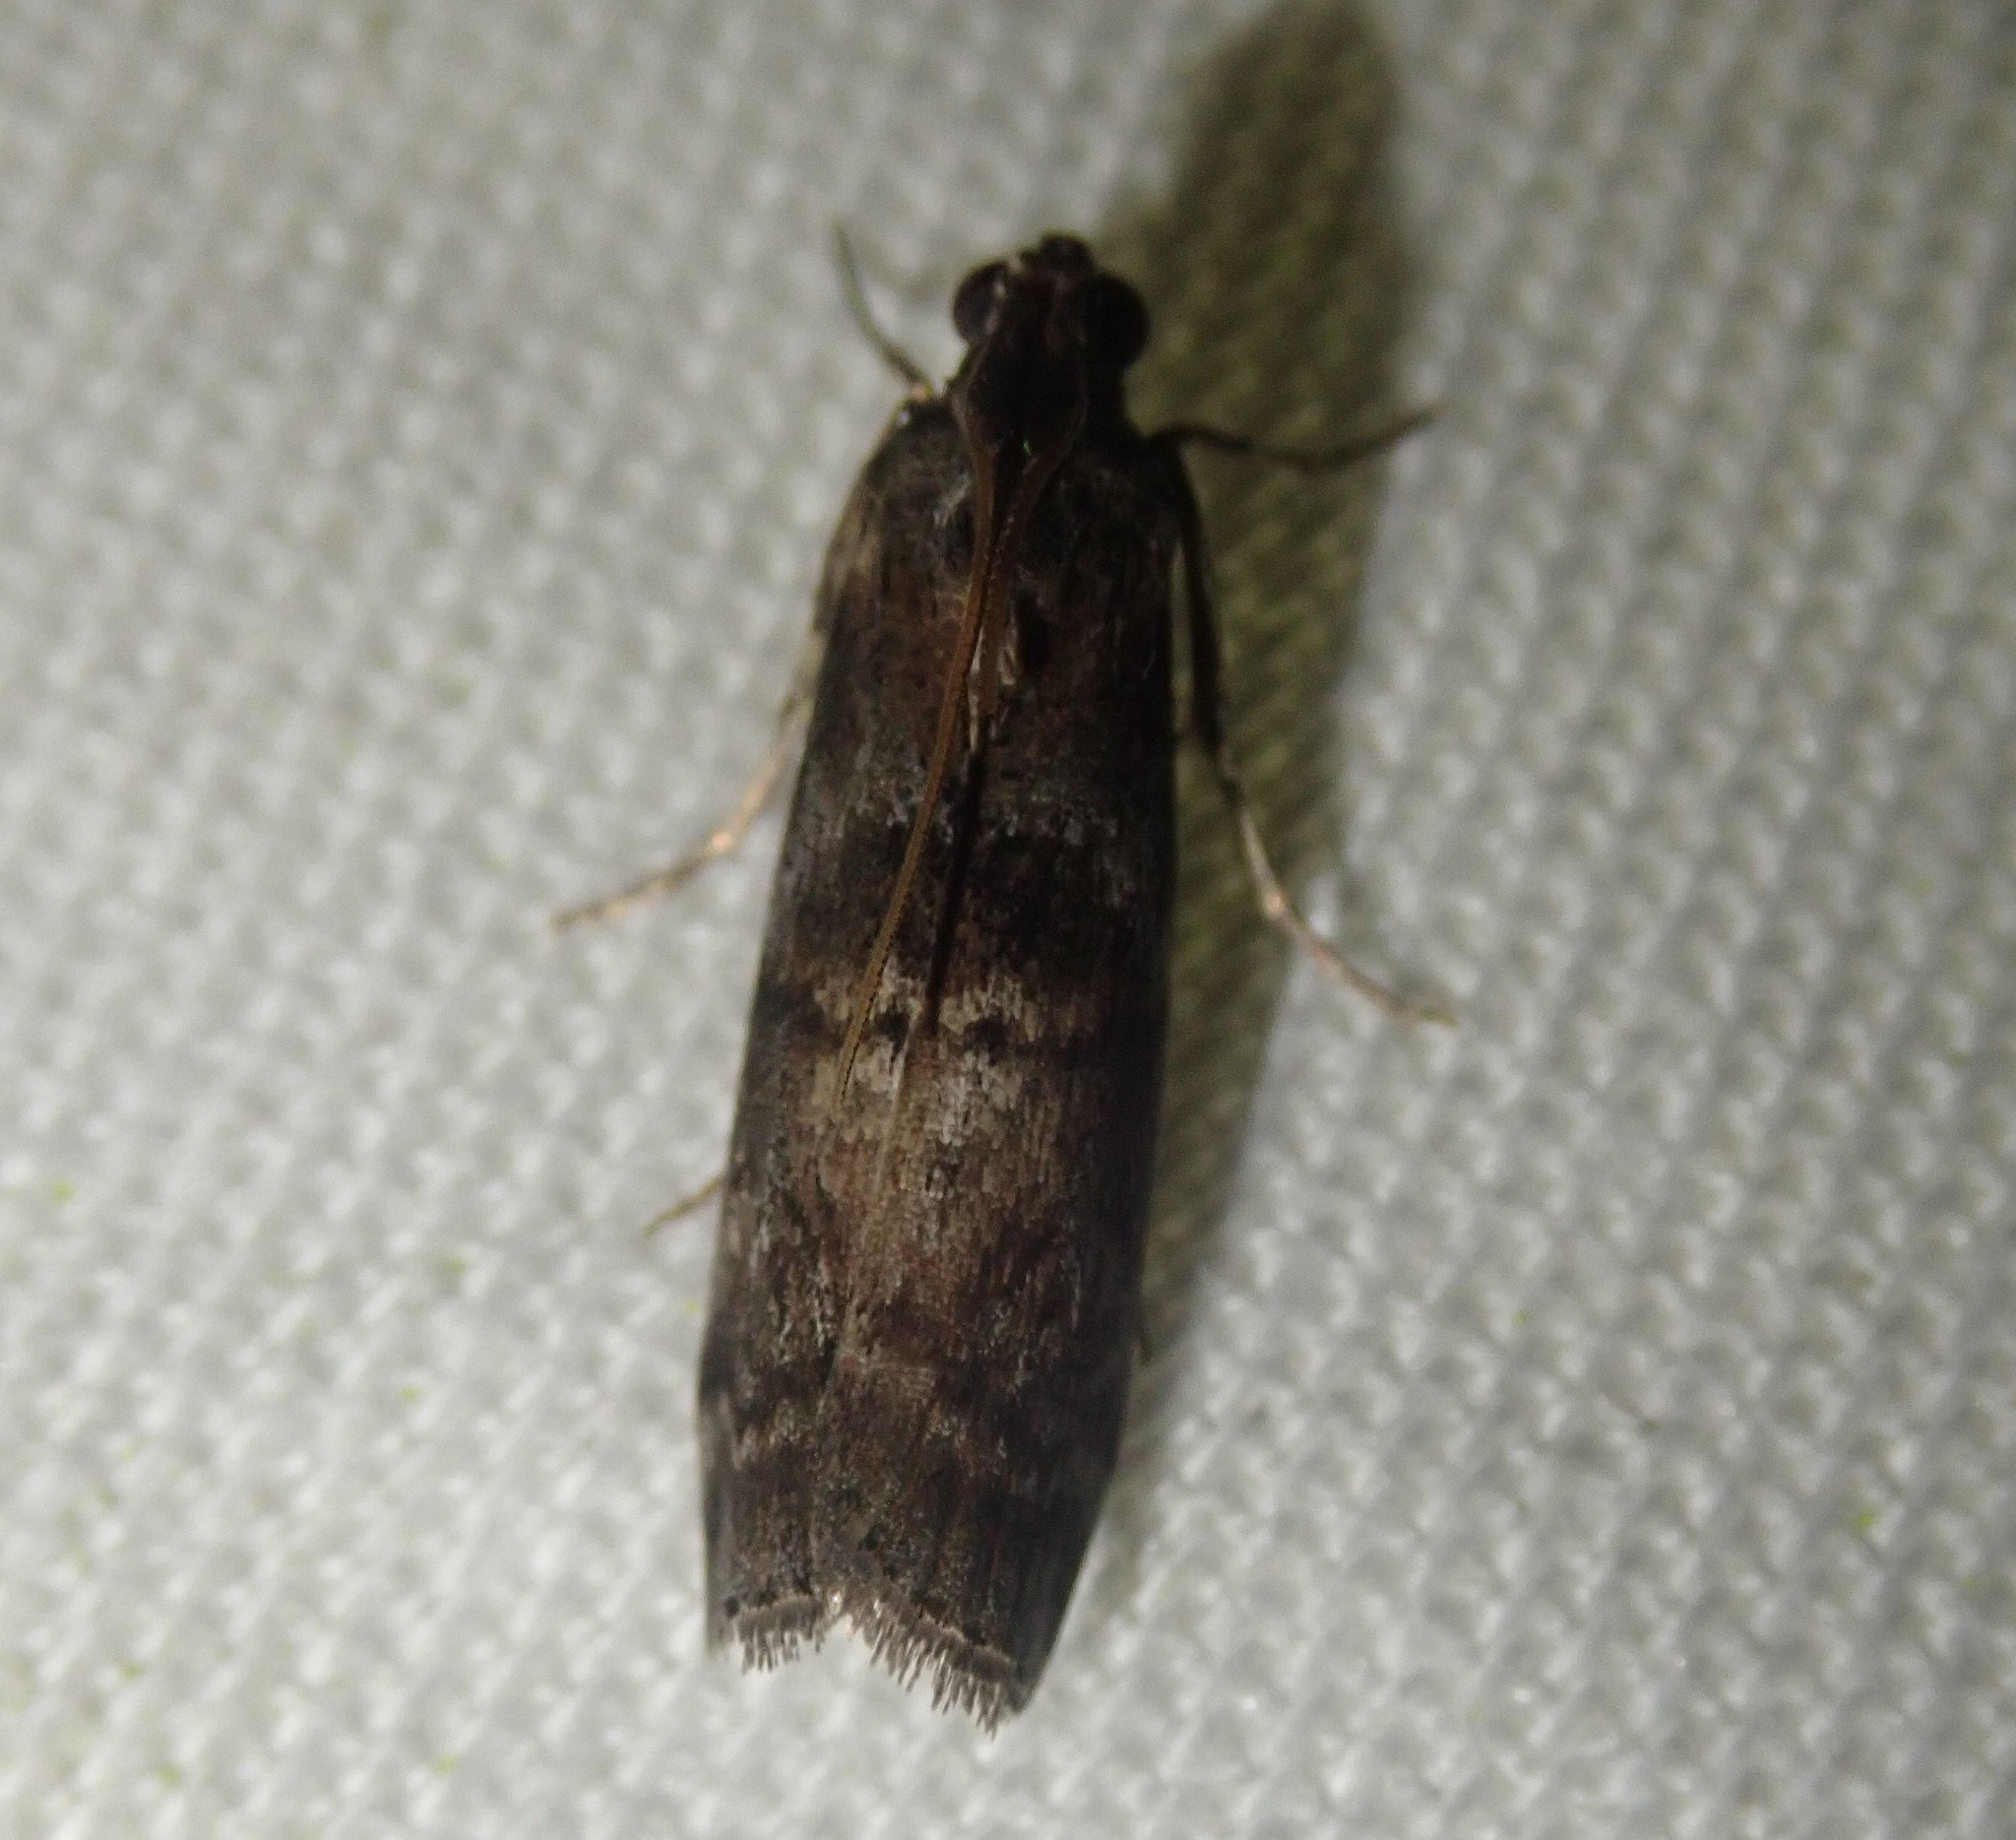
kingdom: Animalia
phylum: Arthropoda
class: Insecta
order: Lepidoptera
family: Pyralidae
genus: Phycita
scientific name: Phycita roborella
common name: Dotted oak knot-horn
